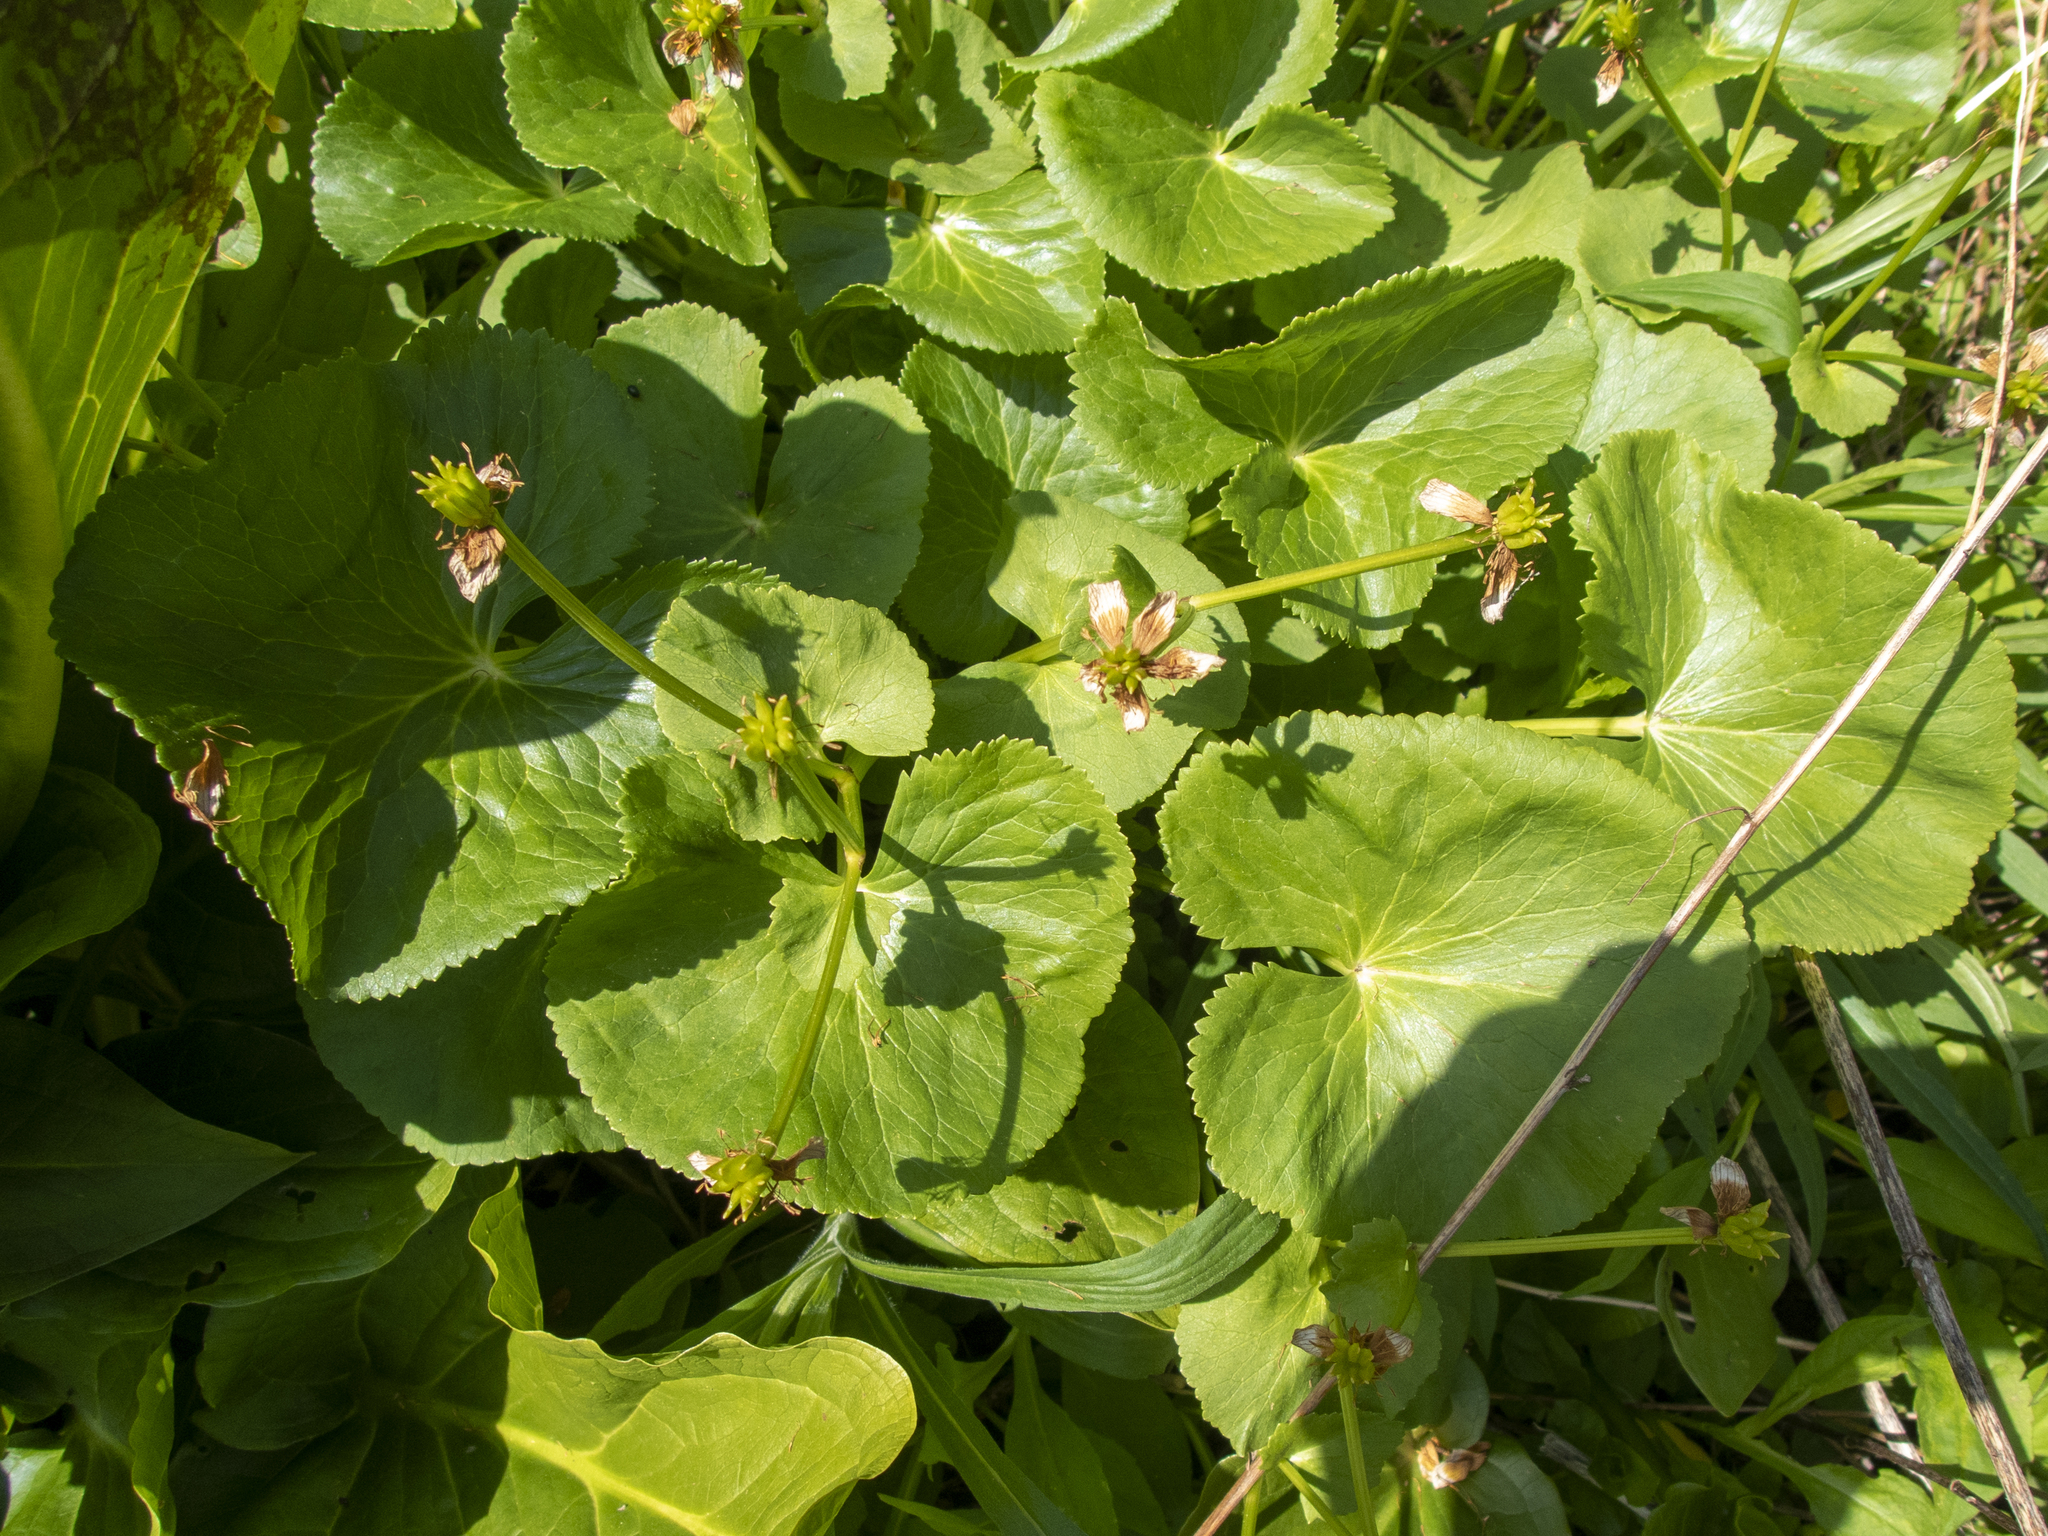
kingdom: Plantae
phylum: Tracheophyta
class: Magnoliopsida
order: Ranunculales
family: Ranunculaceae
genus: Caltha
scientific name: Caltha palustris
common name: Marsh marigold
